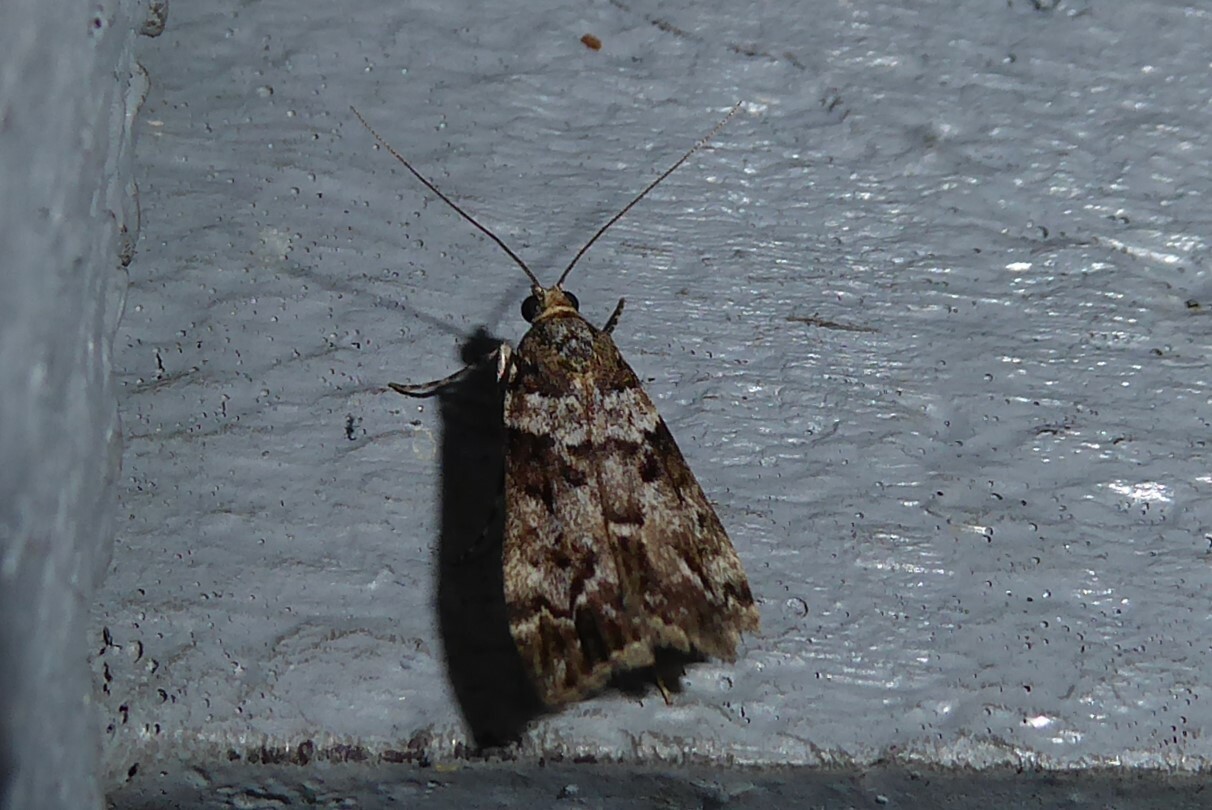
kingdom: Animalia
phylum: Arthropoda
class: Insecta
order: Lepidoptera
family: Crambidae
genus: Eudonia
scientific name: Eudonia submarginalis
